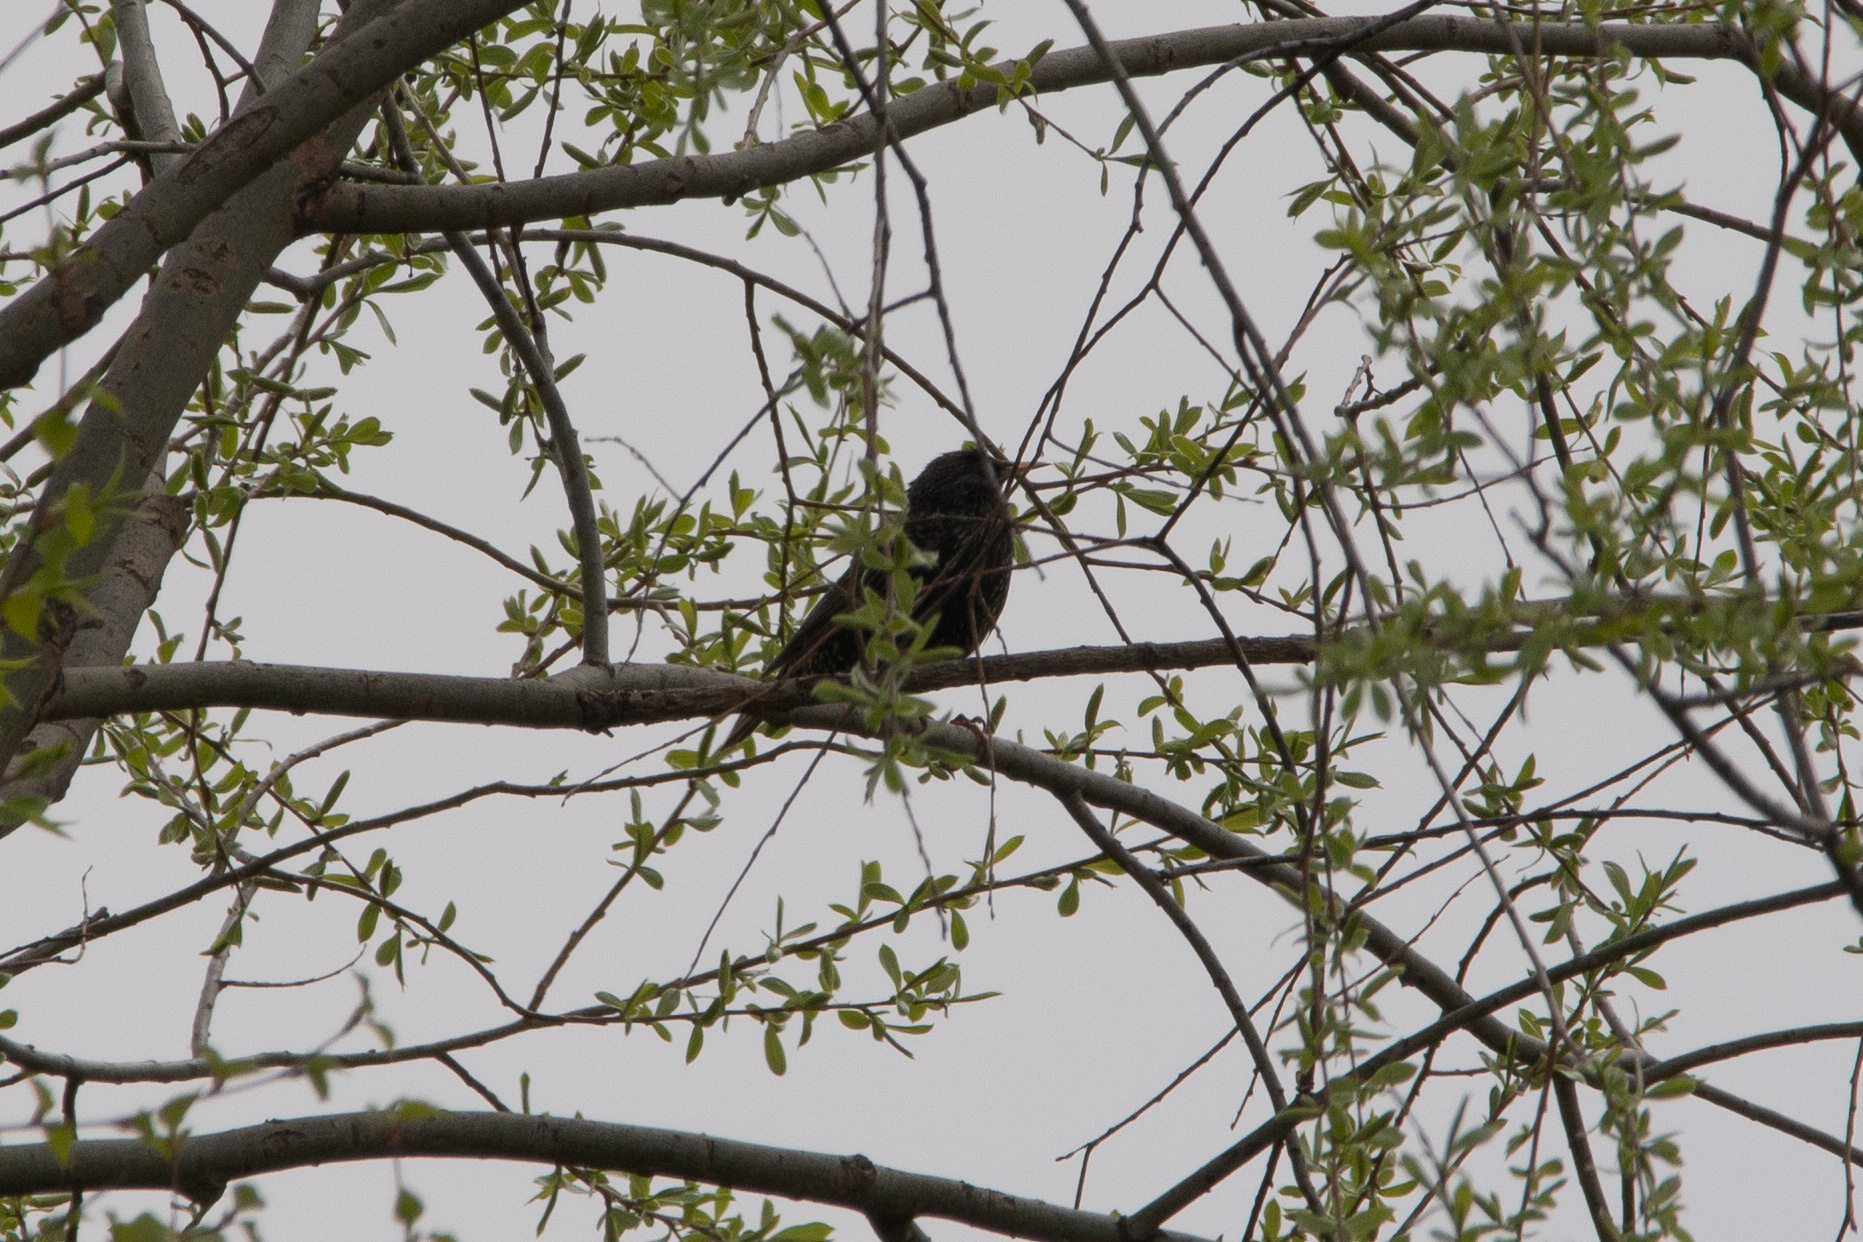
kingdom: Animalia
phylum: Chordata
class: Aves
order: Passeriformes
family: Sturnidae
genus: Sturnus
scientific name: Sturnus vulgaris
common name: Common starling
